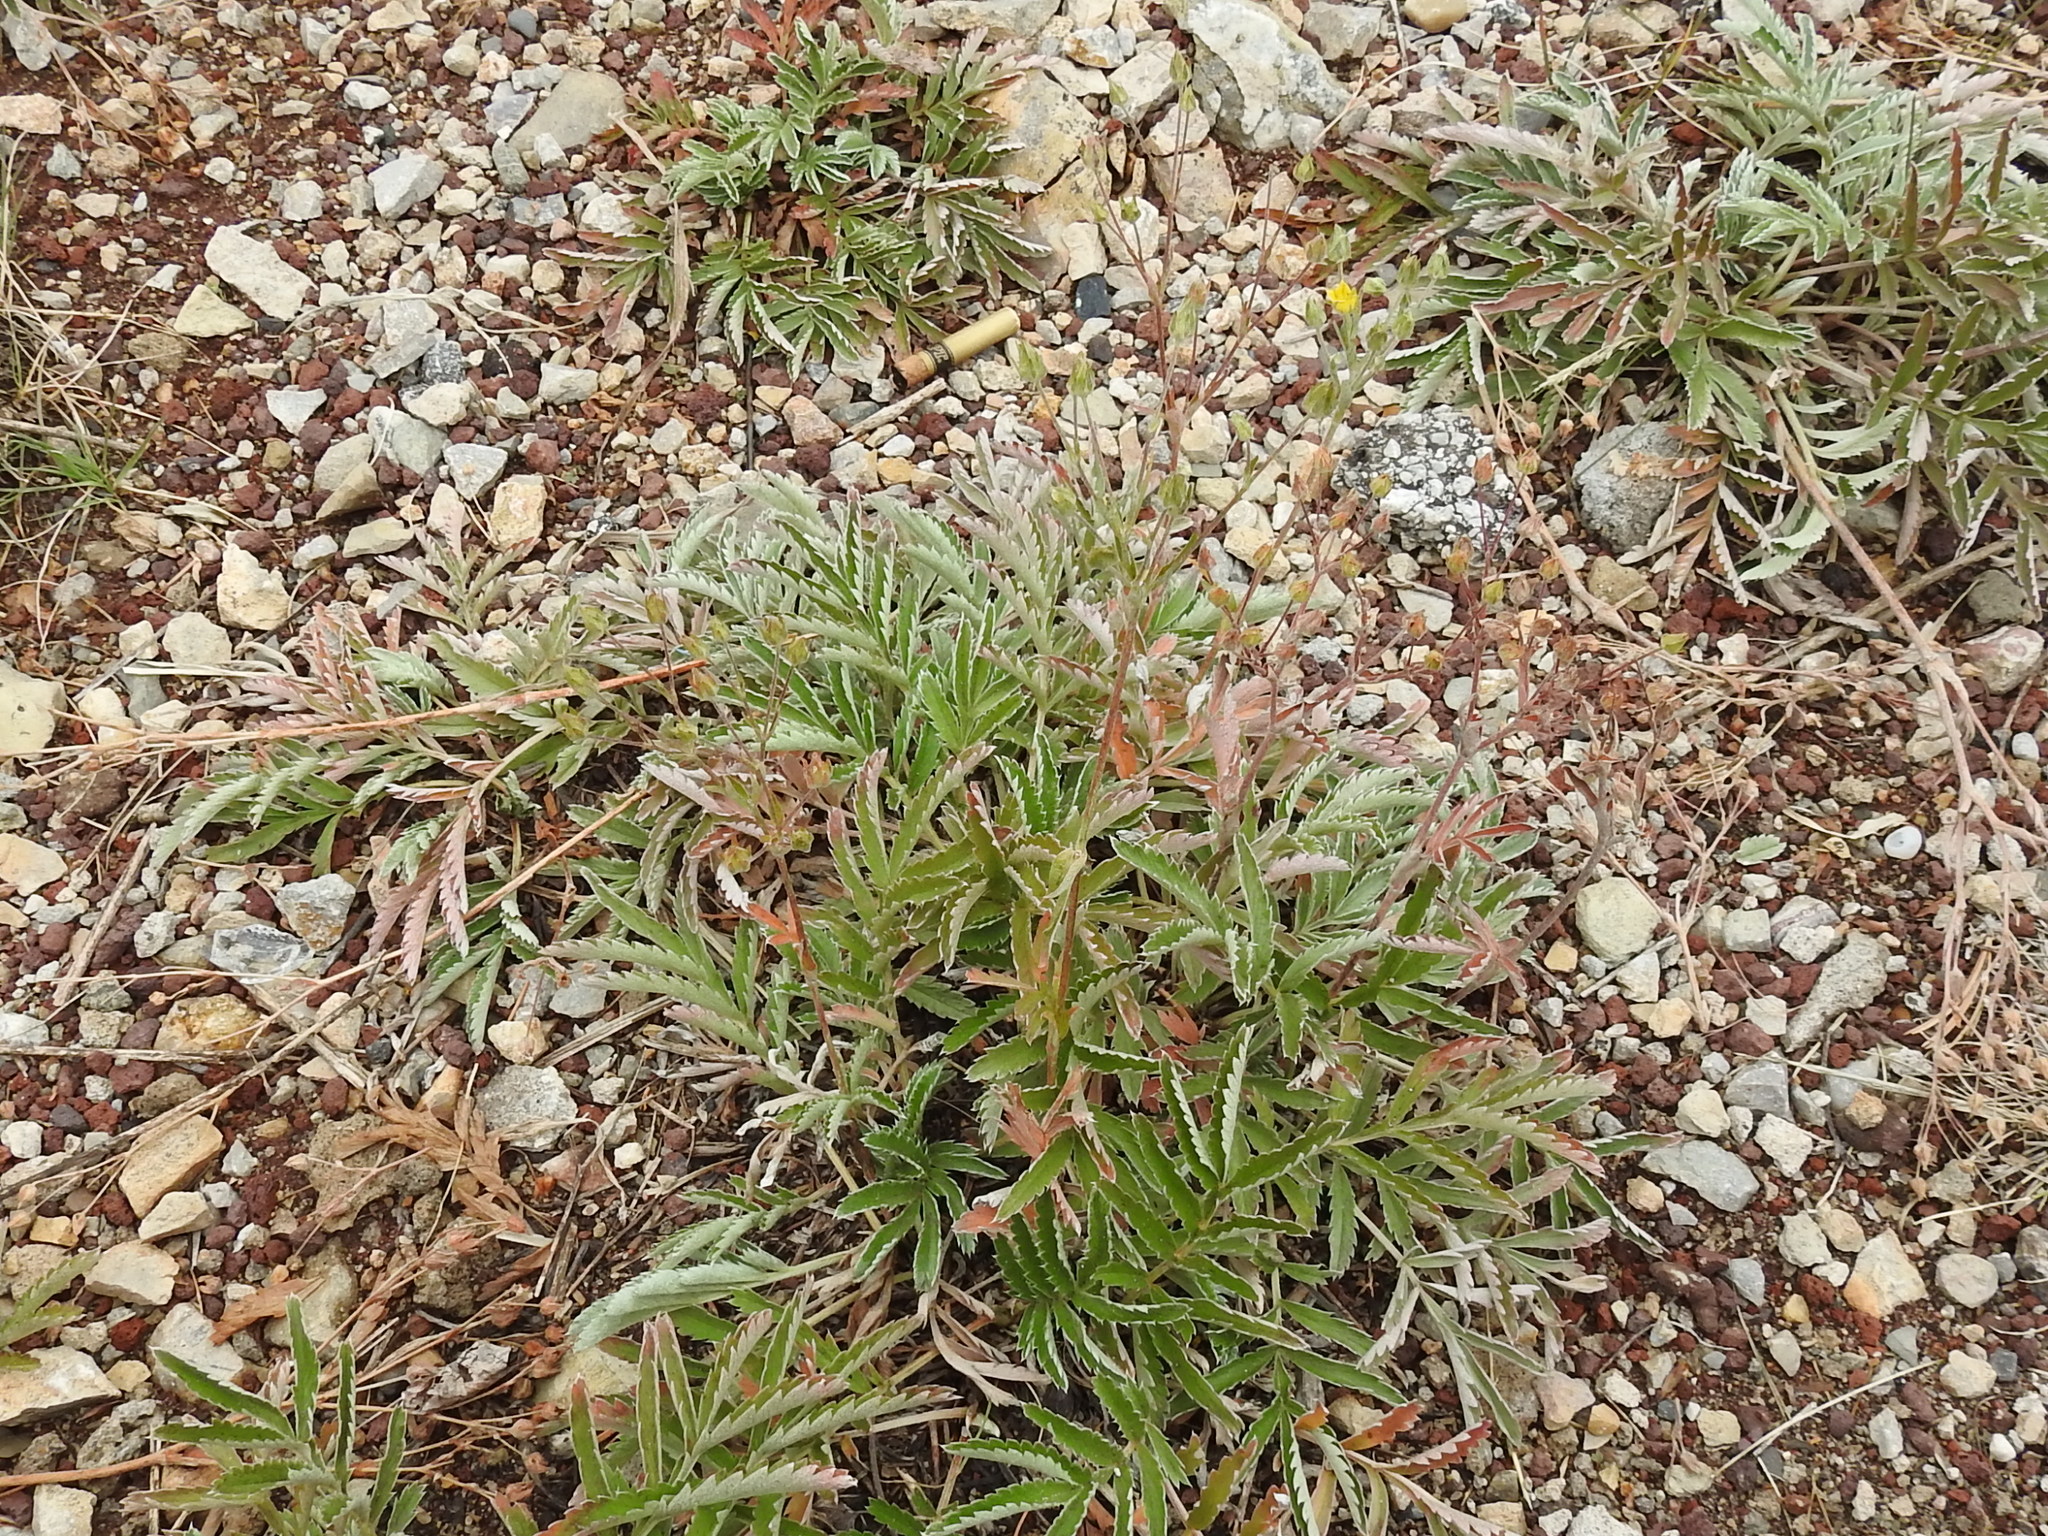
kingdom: Plantae
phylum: Tracheophyta
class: Magnoliopsida
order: Rosales
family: Rosaceae
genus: Potentilla
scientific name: Potentilla hippiana
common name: Woolly cinquefoil
